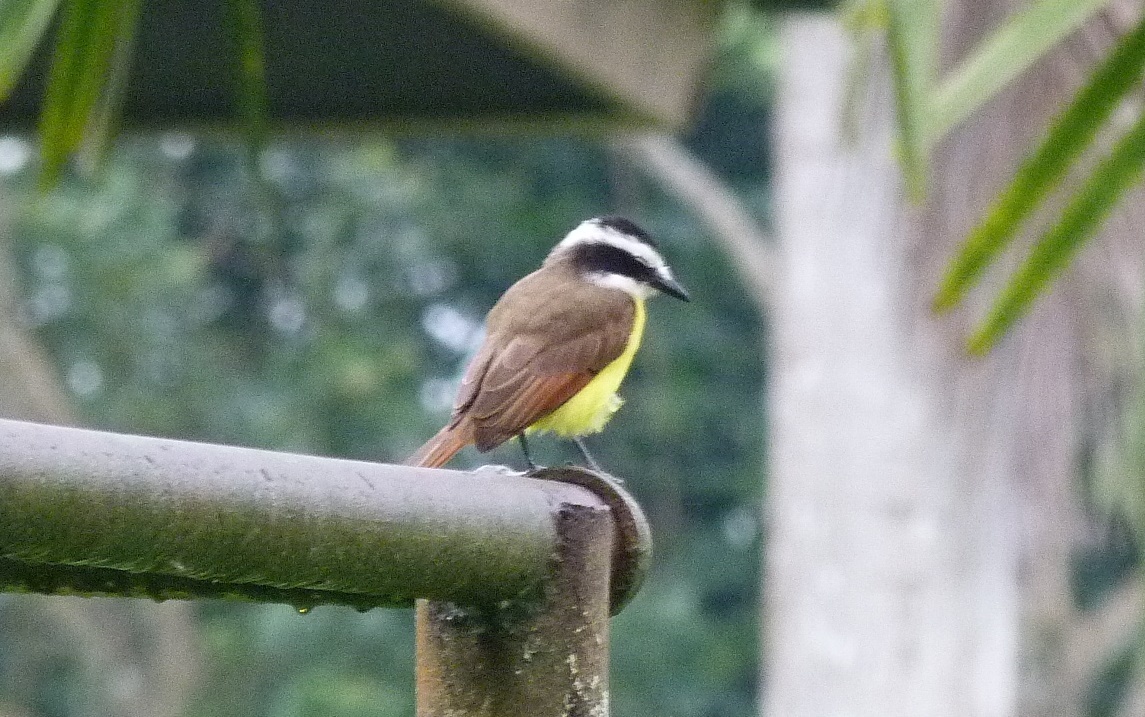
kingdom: Animalia
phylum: Chordata
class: Aves
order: Passeriformes
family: Tyrannidae
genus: Myiozetetes
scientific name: Myiozetetes similis
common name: Social flycatcher
